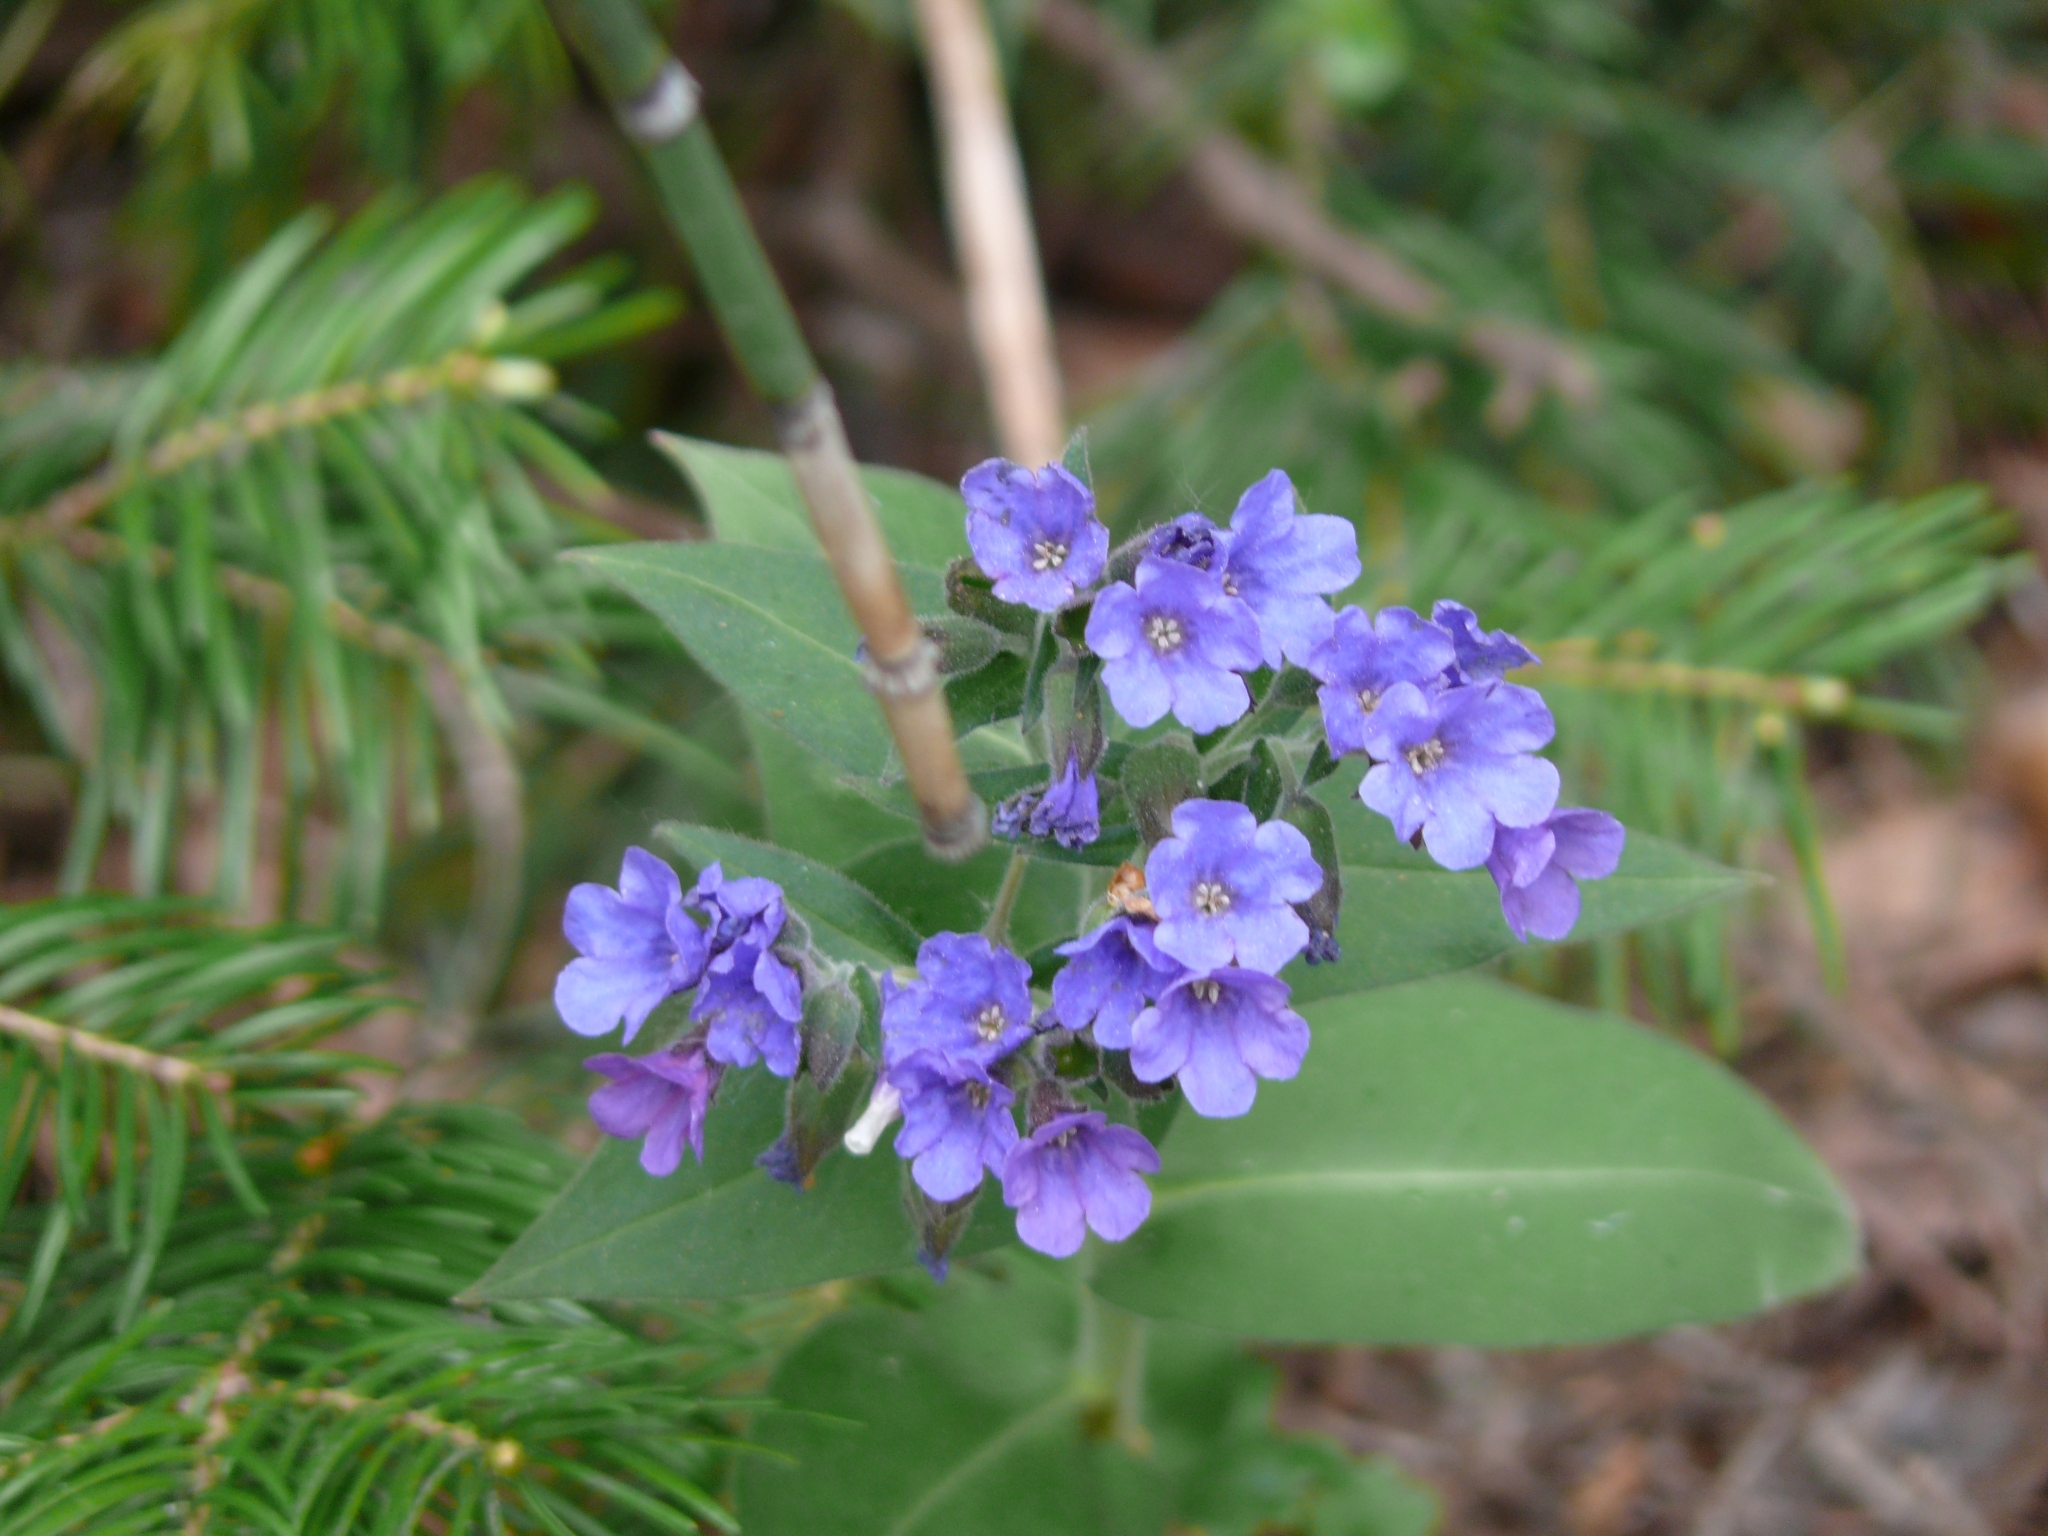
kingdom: Plantae
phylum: Tracheophyta
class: Magnoliopsida
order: Boraginales
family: Boraginaceae
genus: Pulmonaria
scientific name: Pulmonaria mollis
